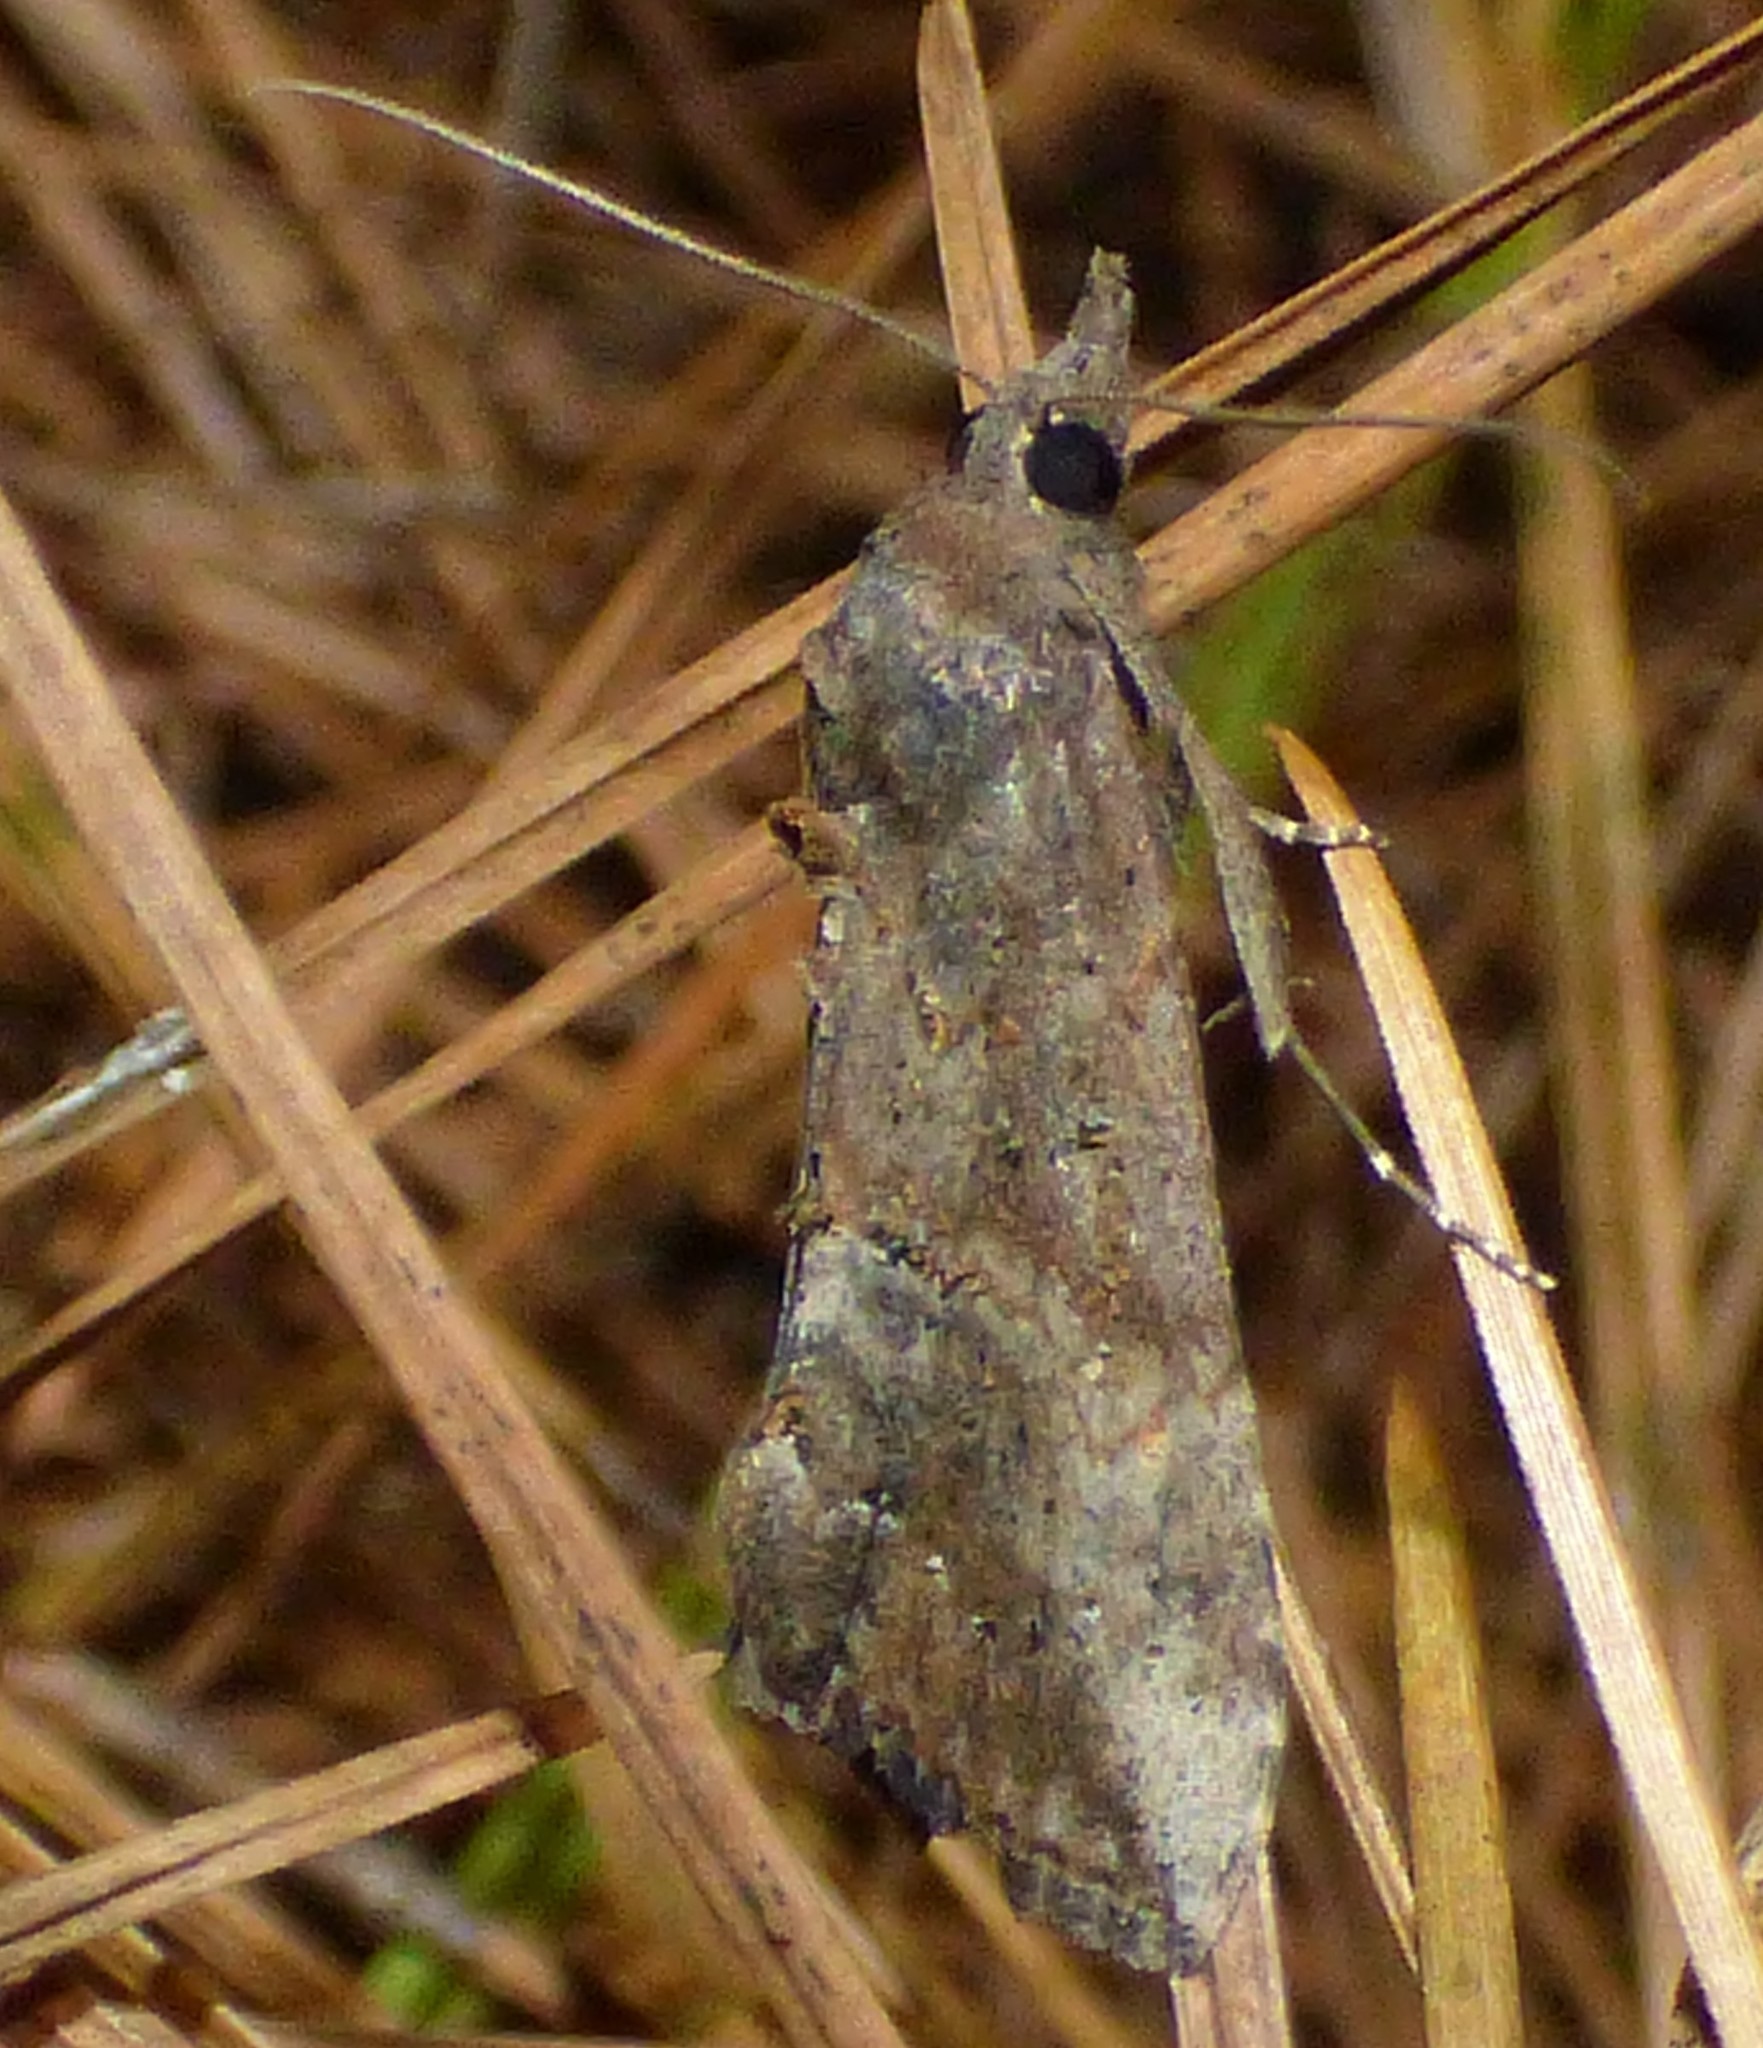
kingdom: Animalia
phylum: Arthropoda
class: Insecta
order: Lepidoptera
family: Erebidae
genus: Hypena
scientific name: Hypena scabra
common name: Green cloverworm
